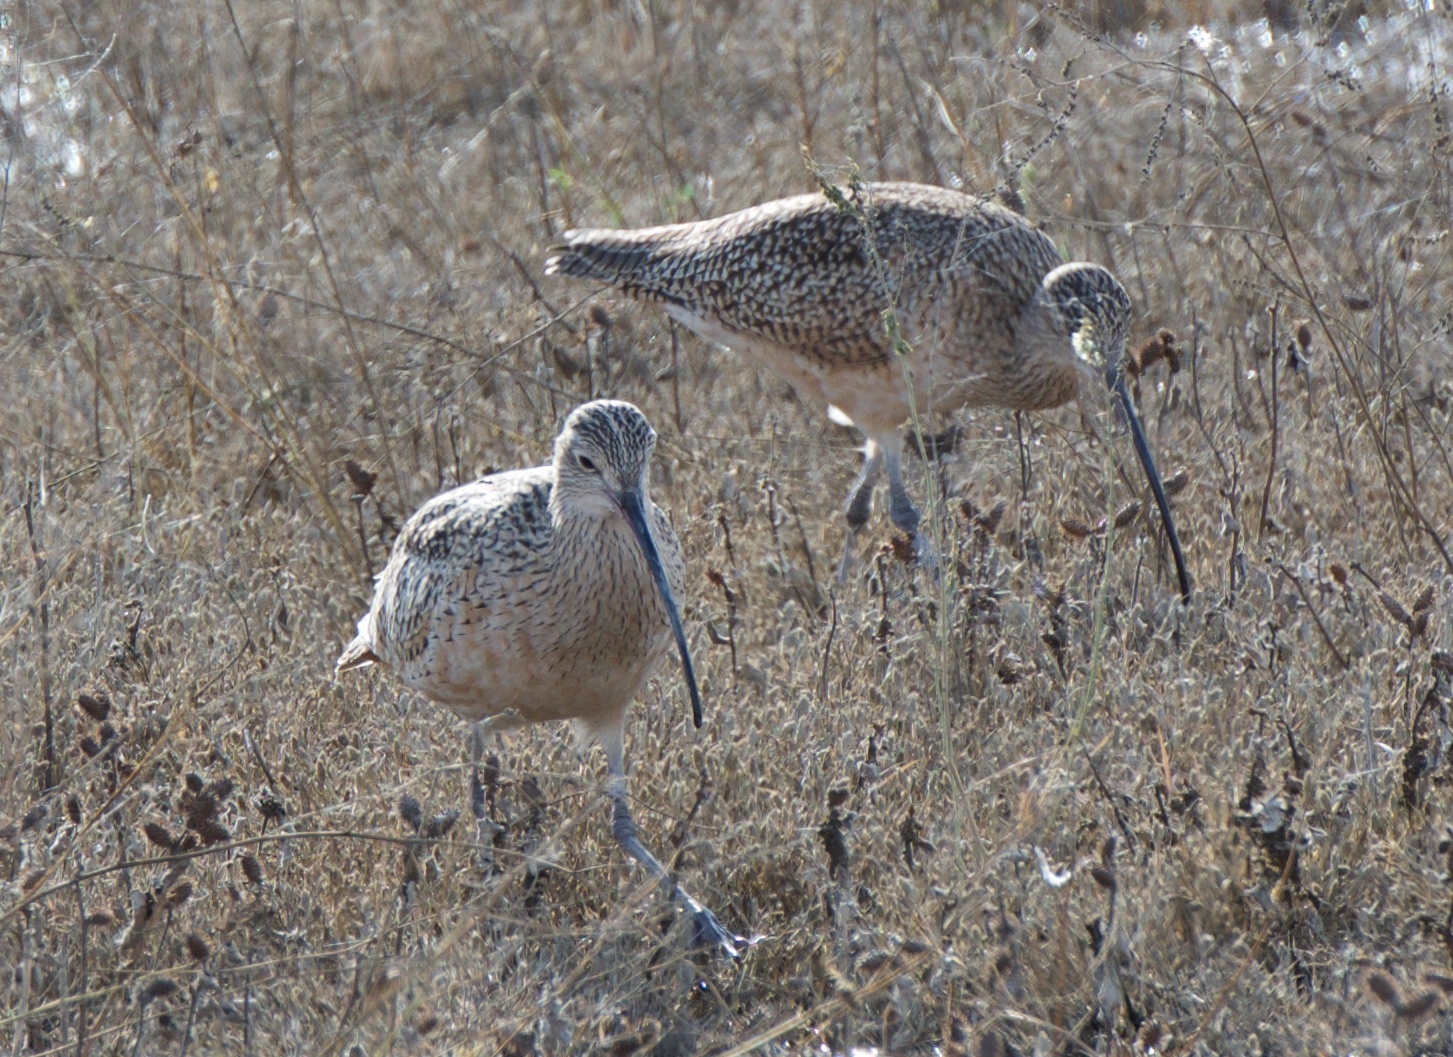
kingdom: Animalia
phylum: Chordata
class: Aves
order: Charadriiformes
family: Scolopacidae
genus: Numenius
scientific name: Numenius americanus
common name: Long-billed curlew
